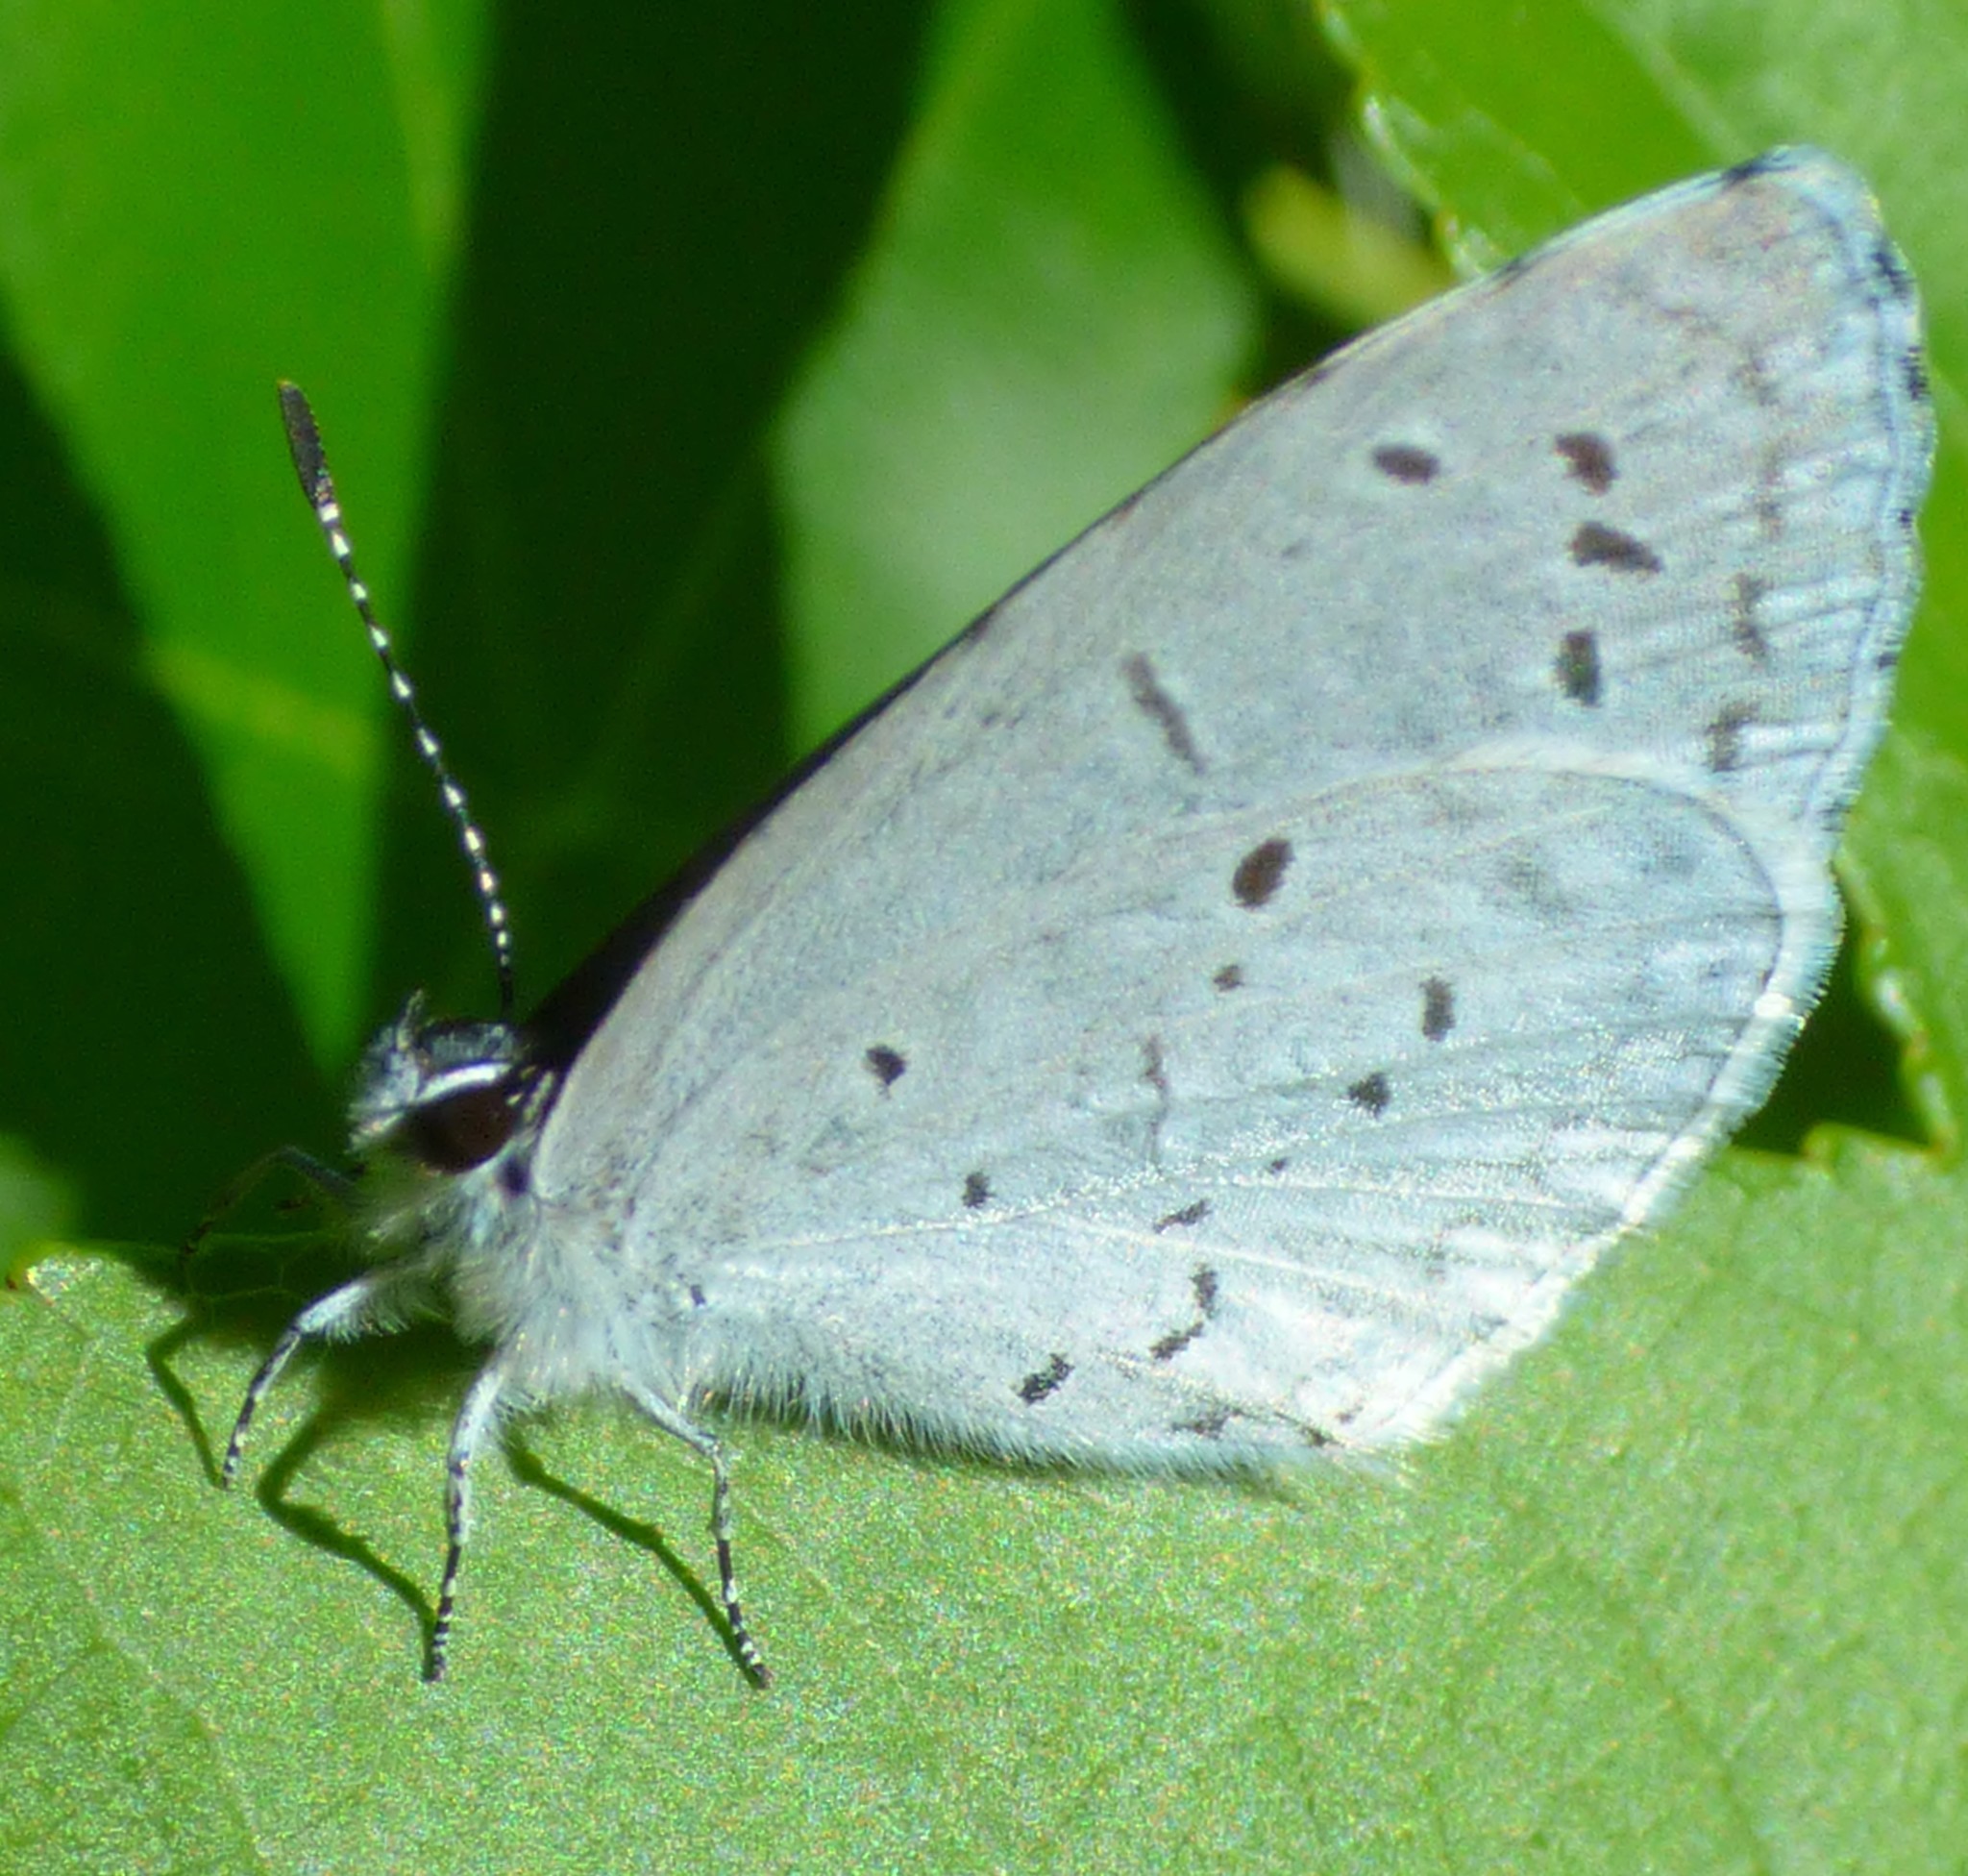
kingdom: Animalia
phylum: Arthropoda
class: Insecta
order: Lepidoptera
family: Lycaenidae
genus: Cyaniris
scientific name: Cyaniris neglecta
